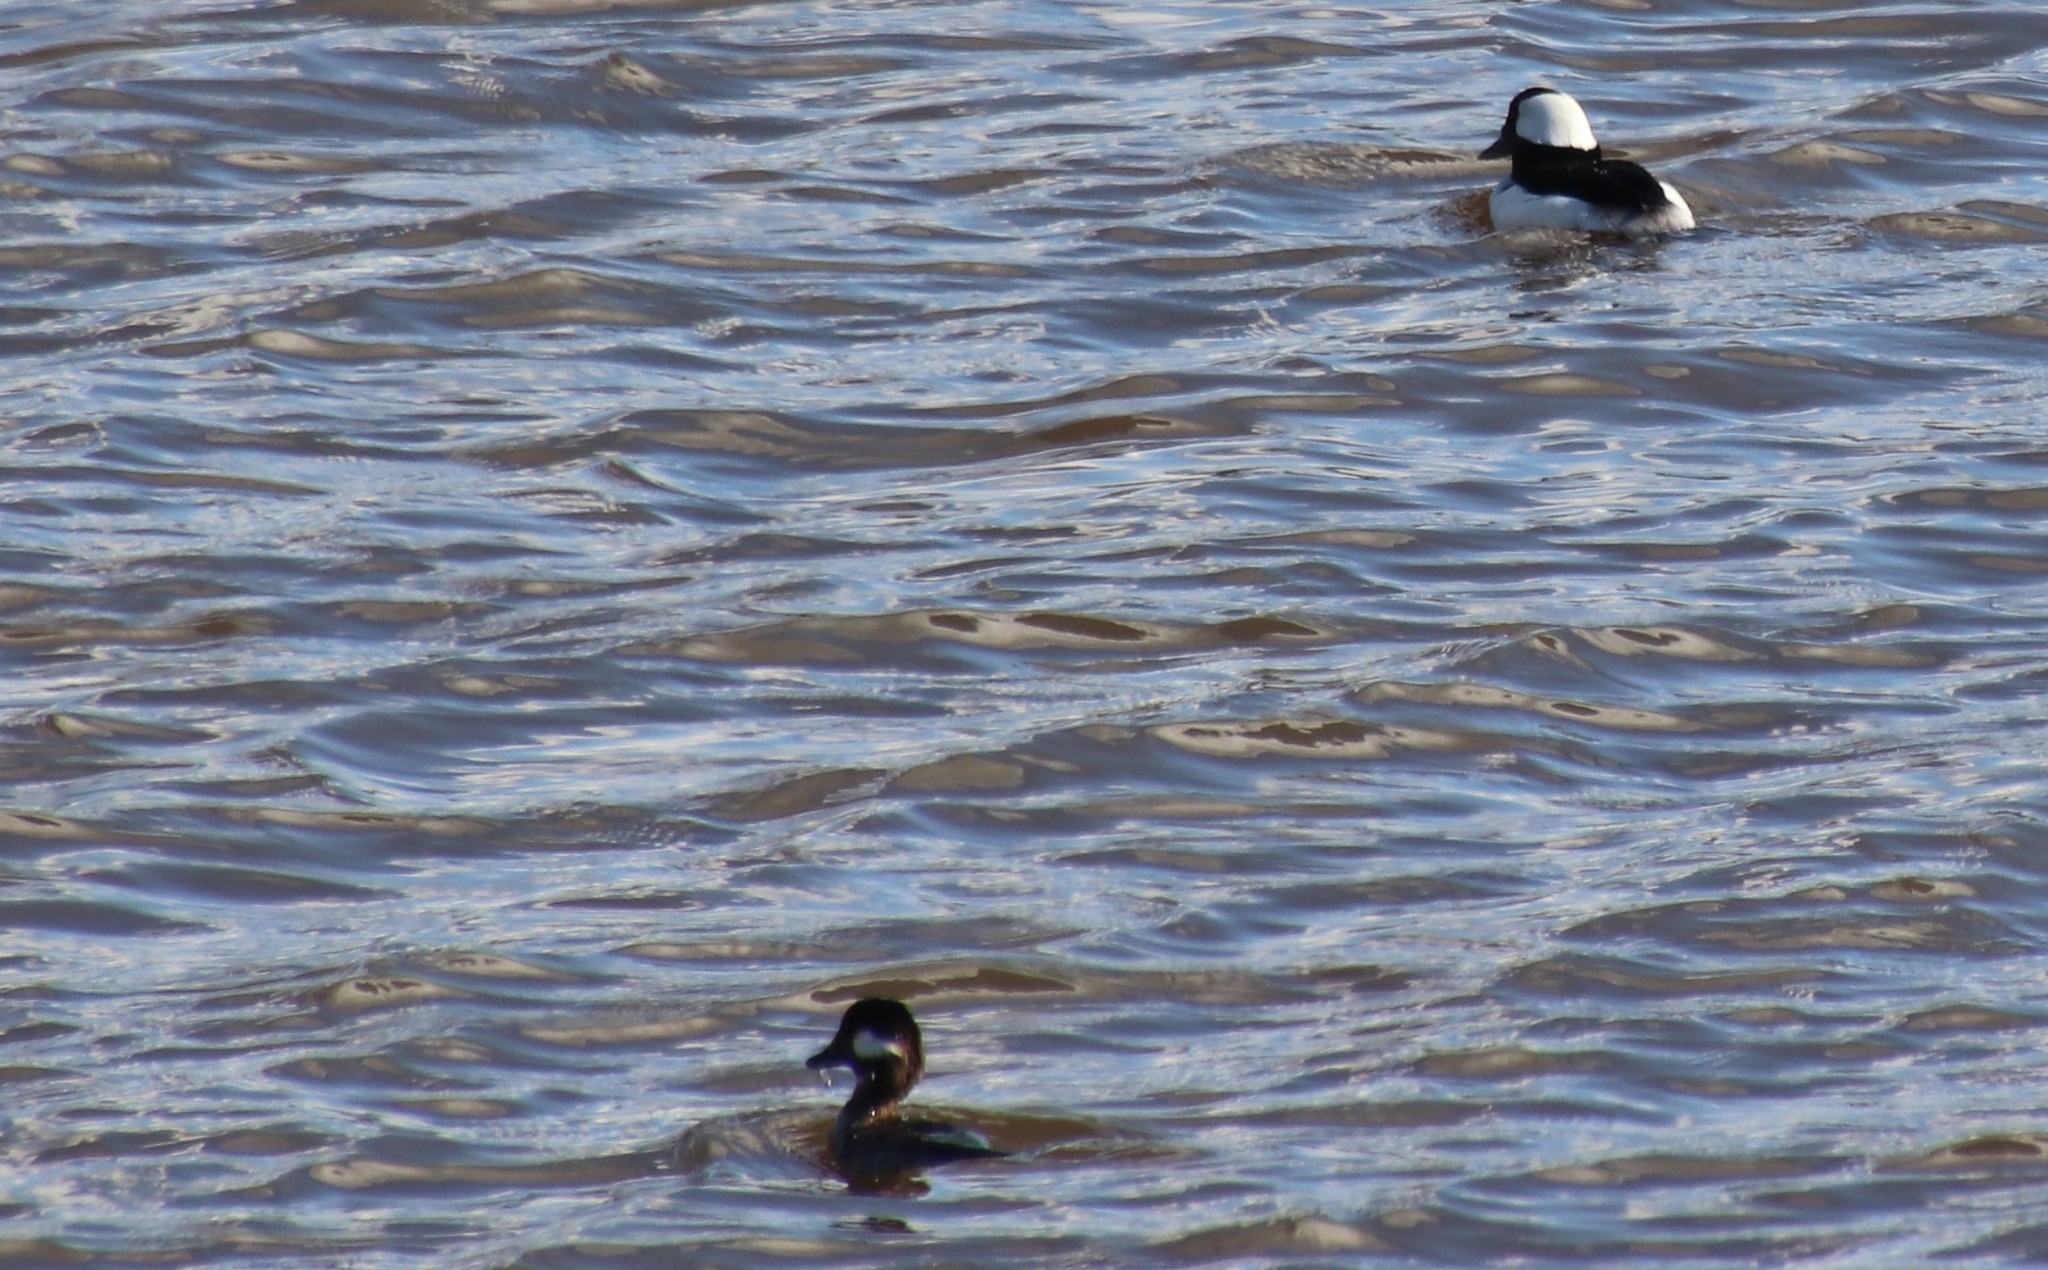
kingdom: Animalia
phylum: Chordata
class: Aves
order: Anseriformes
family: Anatidae
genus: Bucephala
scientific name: Bucephala albeola
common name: Bufflehead
